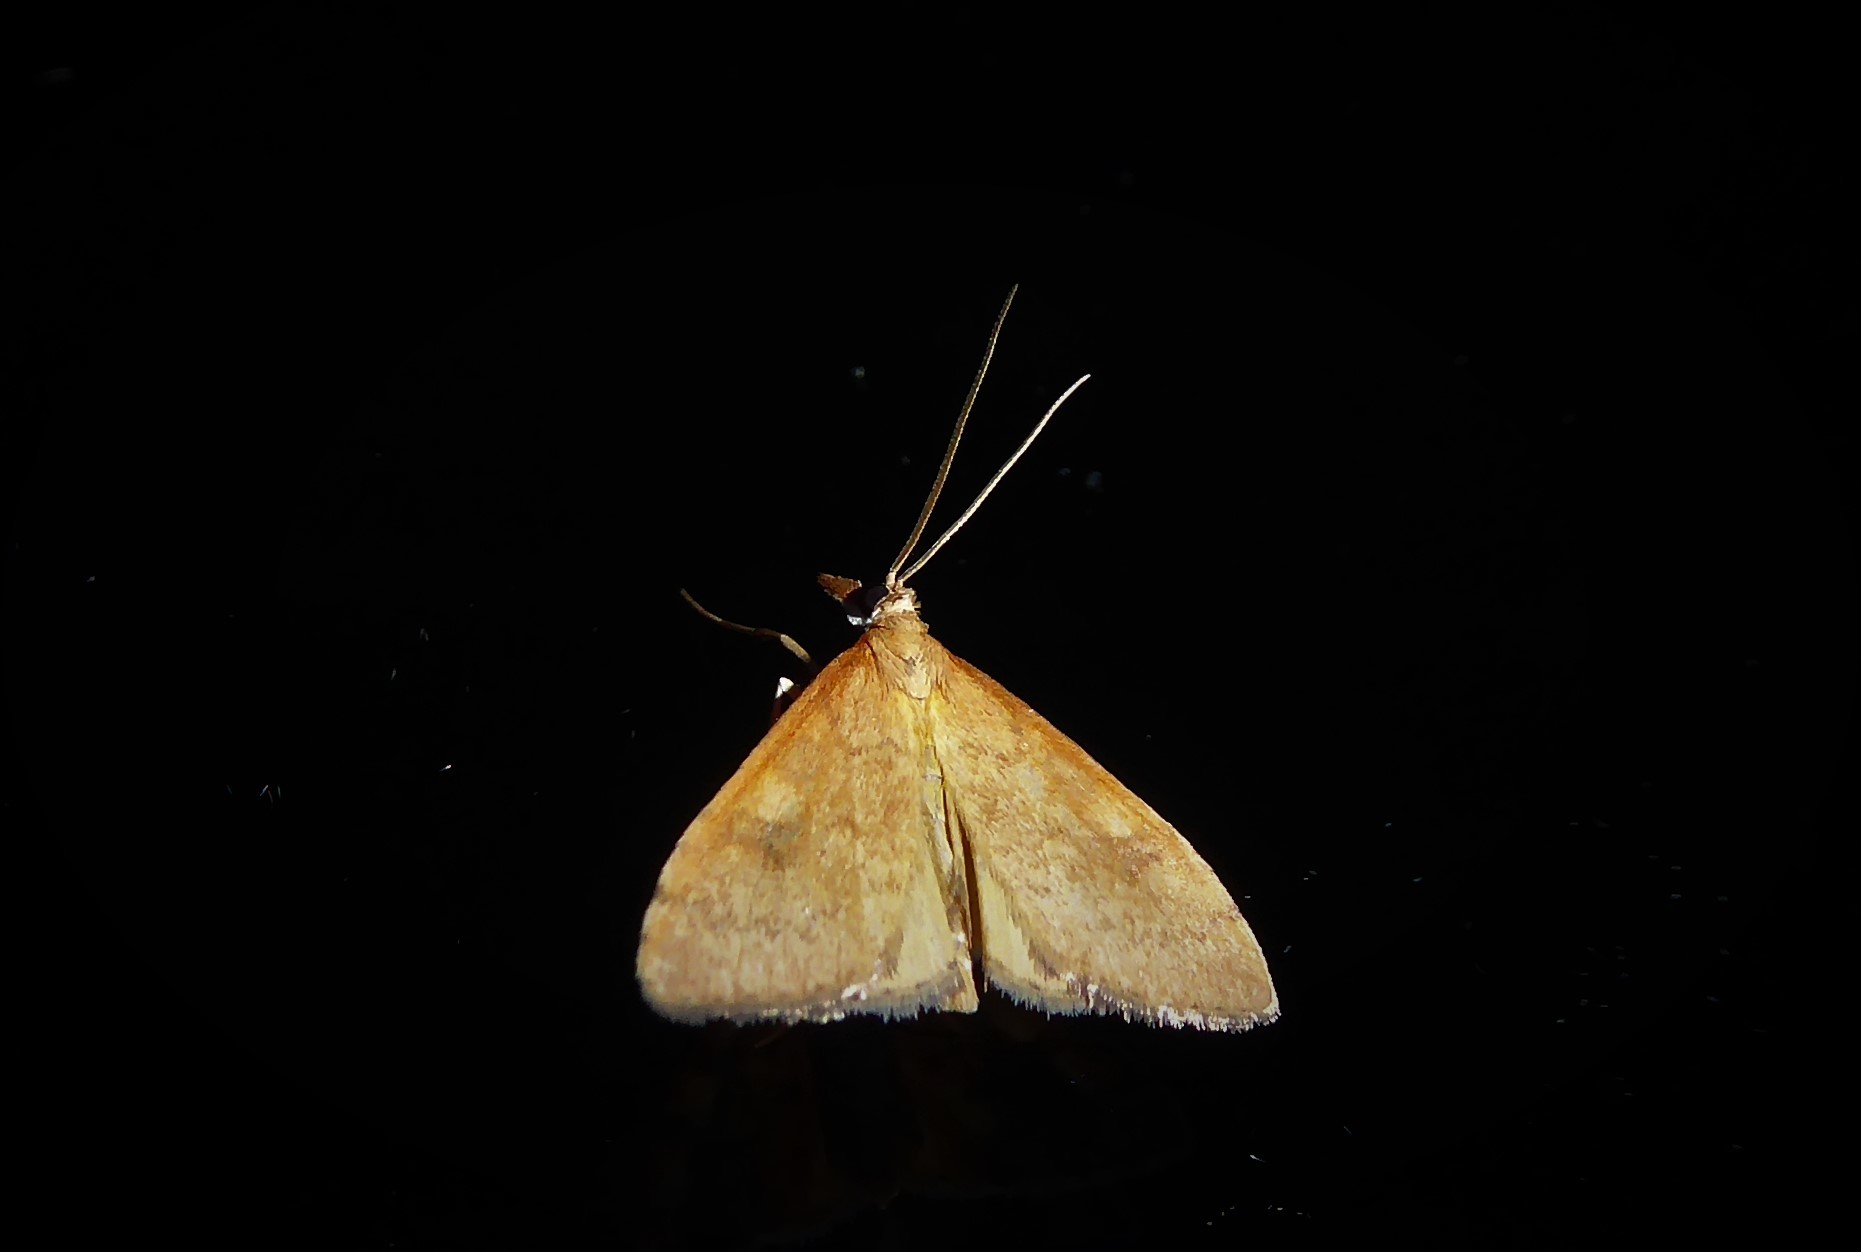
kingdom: Animalia
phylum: Arthropoda
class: Insecta
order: Lepidoptera
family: Crambidae
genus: Udea
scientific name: Udea Mnesictena flavidalis
